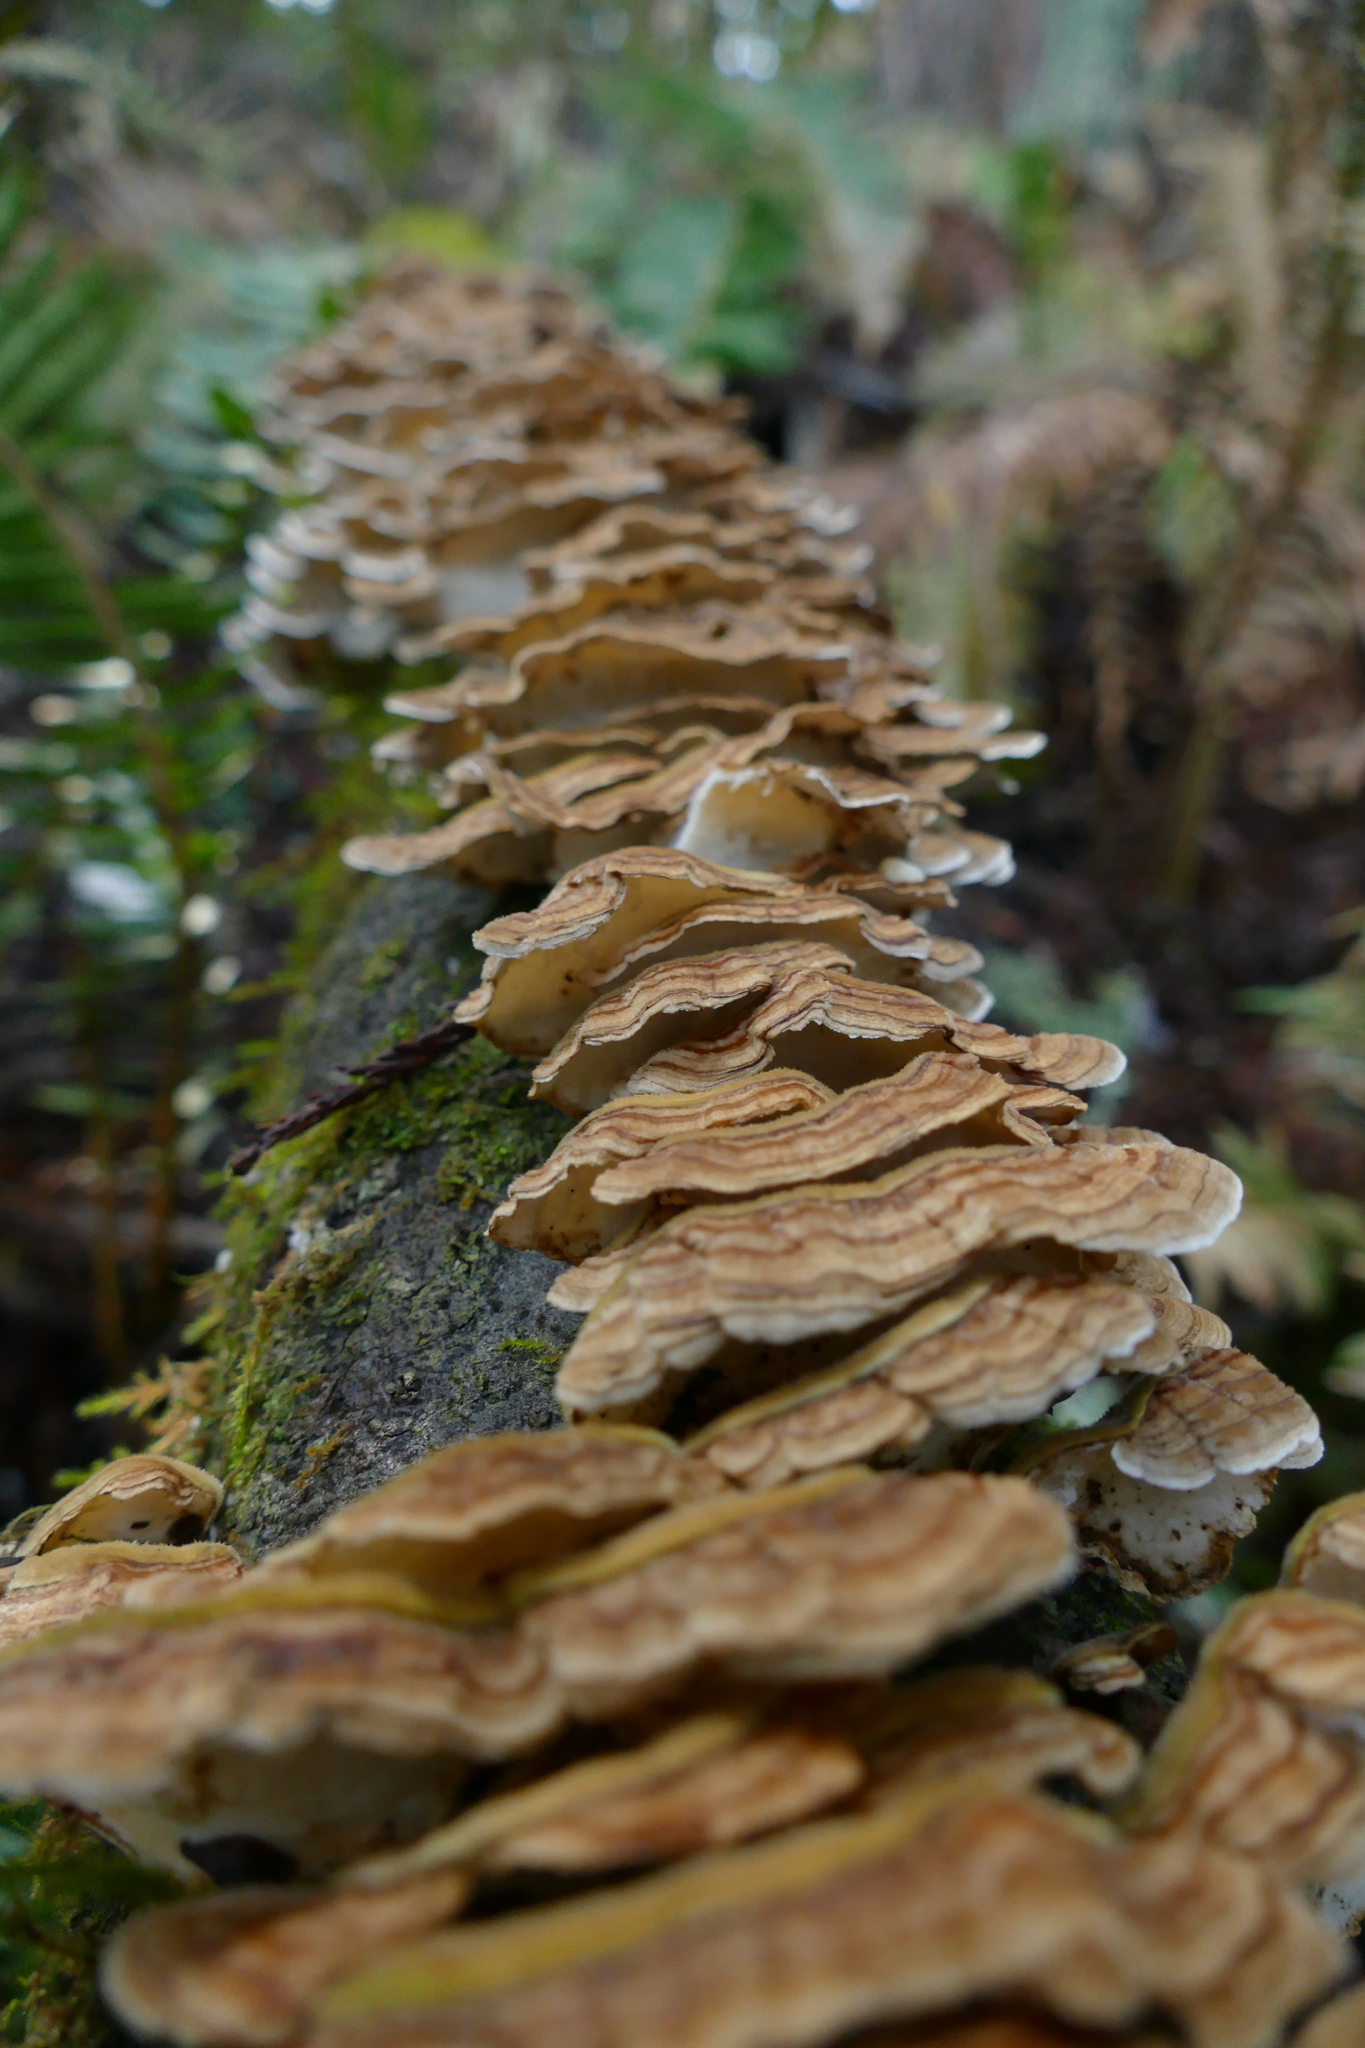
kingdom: Fungi
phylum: Basidiomycota
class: Agaricomycetes
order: Polyporales
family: Polyporaceae
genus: Trametes
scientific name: Trametes versicolor
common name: Turkeytail
